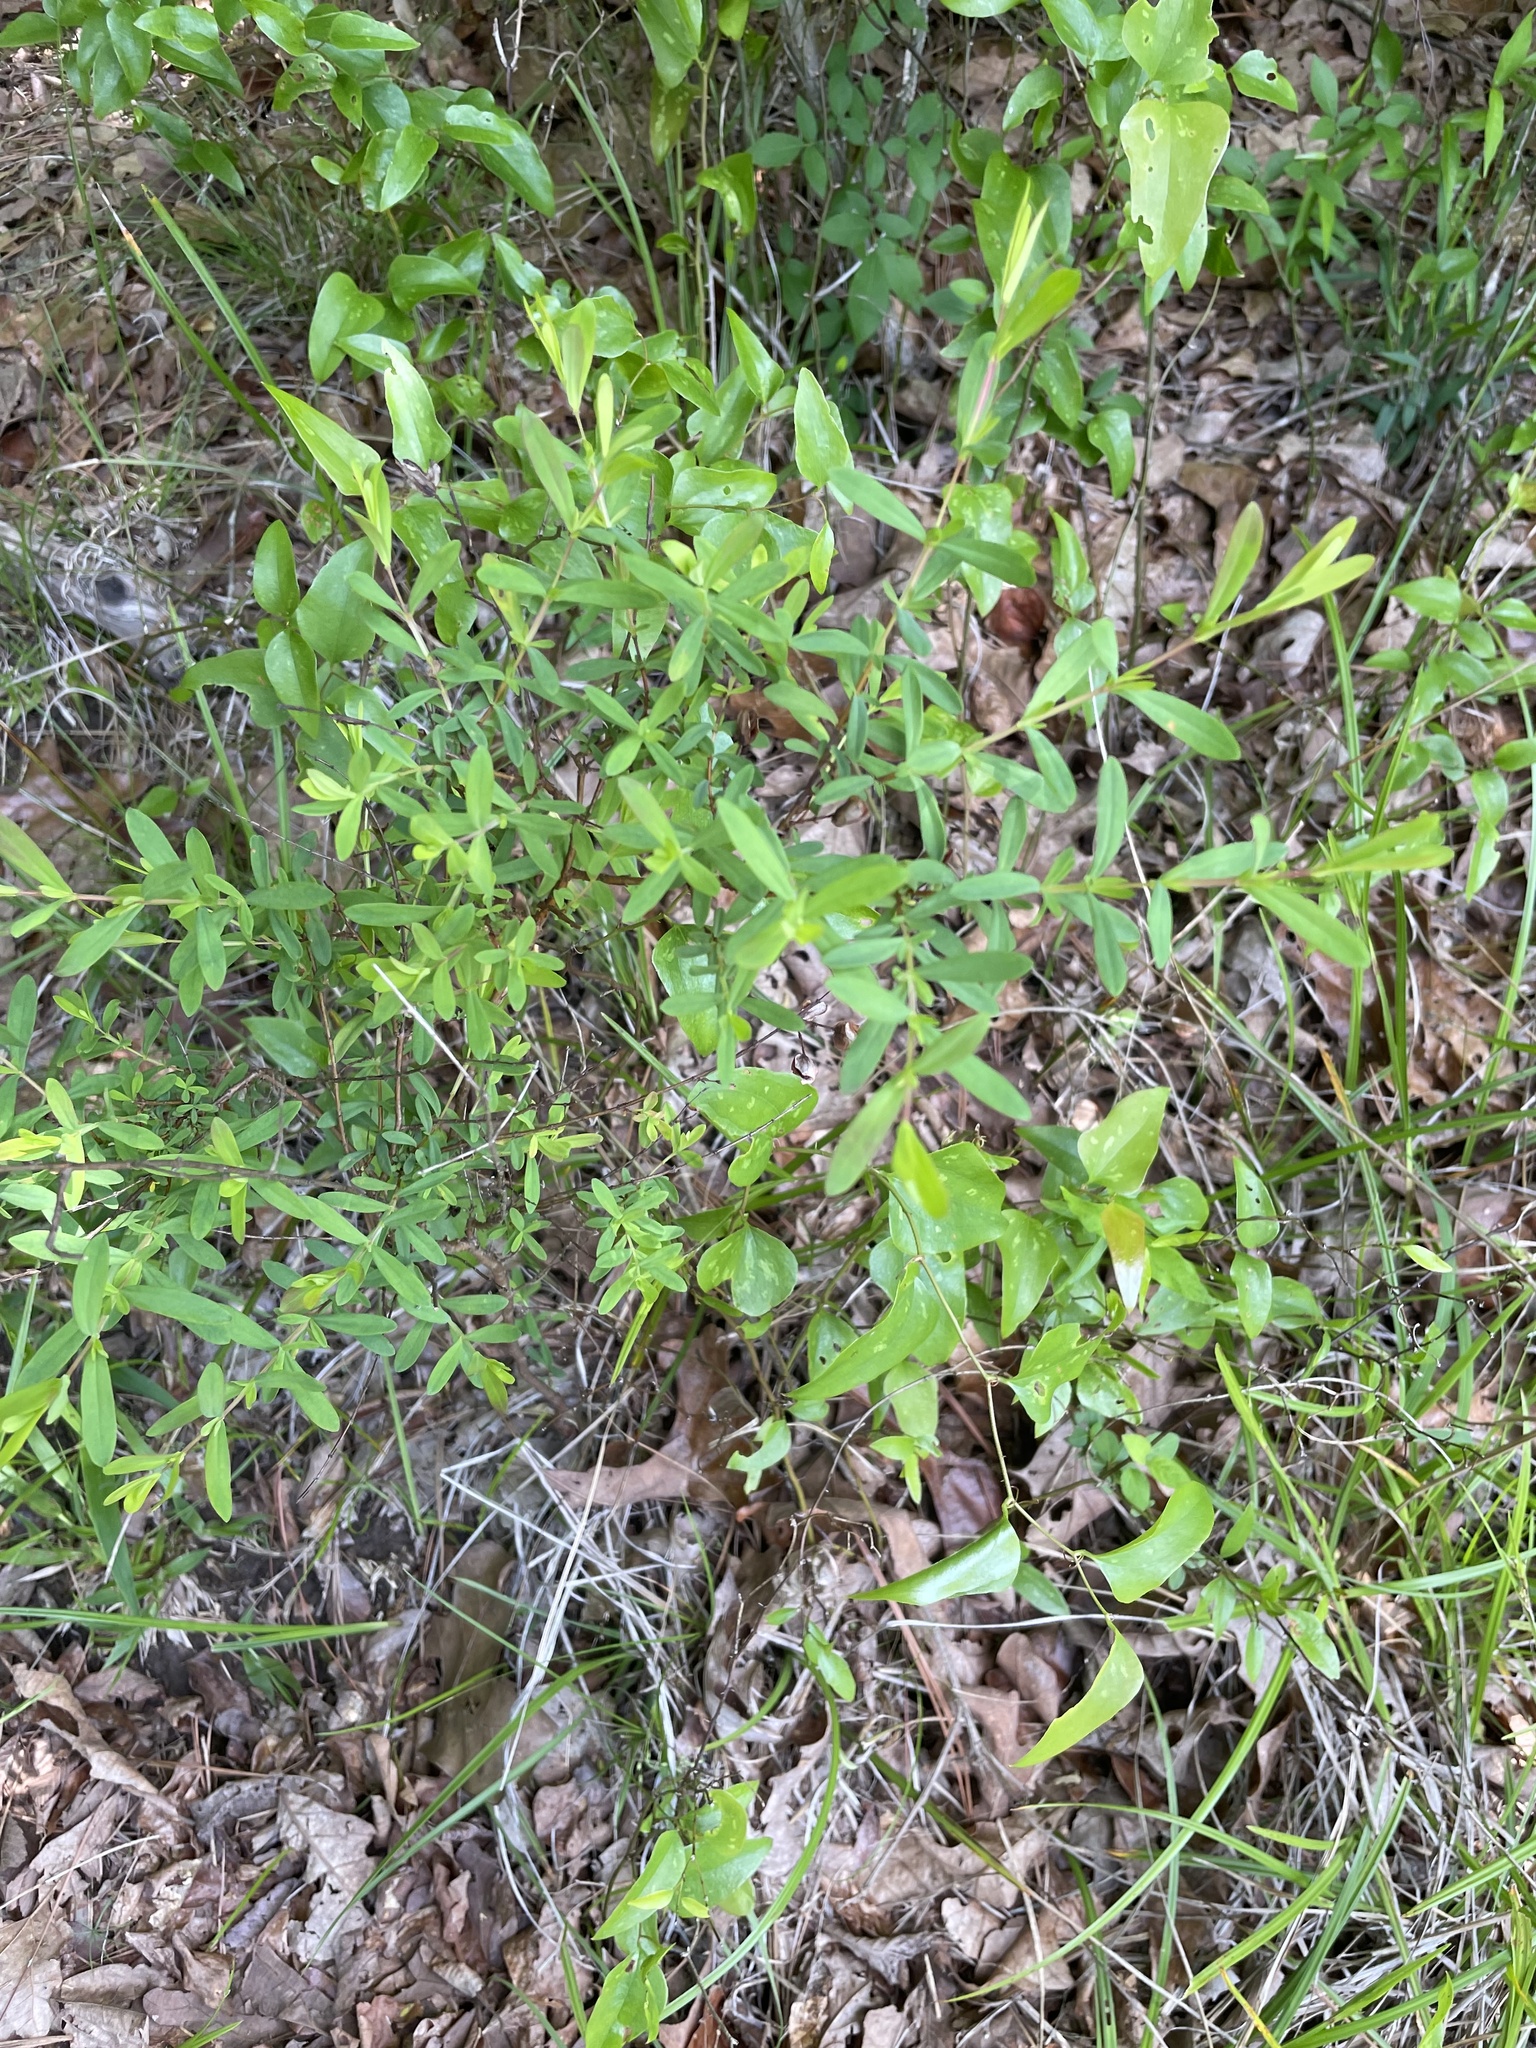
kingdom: Plantae
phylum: Tracheophyta
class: Magnoliopsida
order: Malpighiales
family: Hypericaceae
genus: Hypericum
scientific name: Hypericum hypericoides
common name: St. andrew's cross
